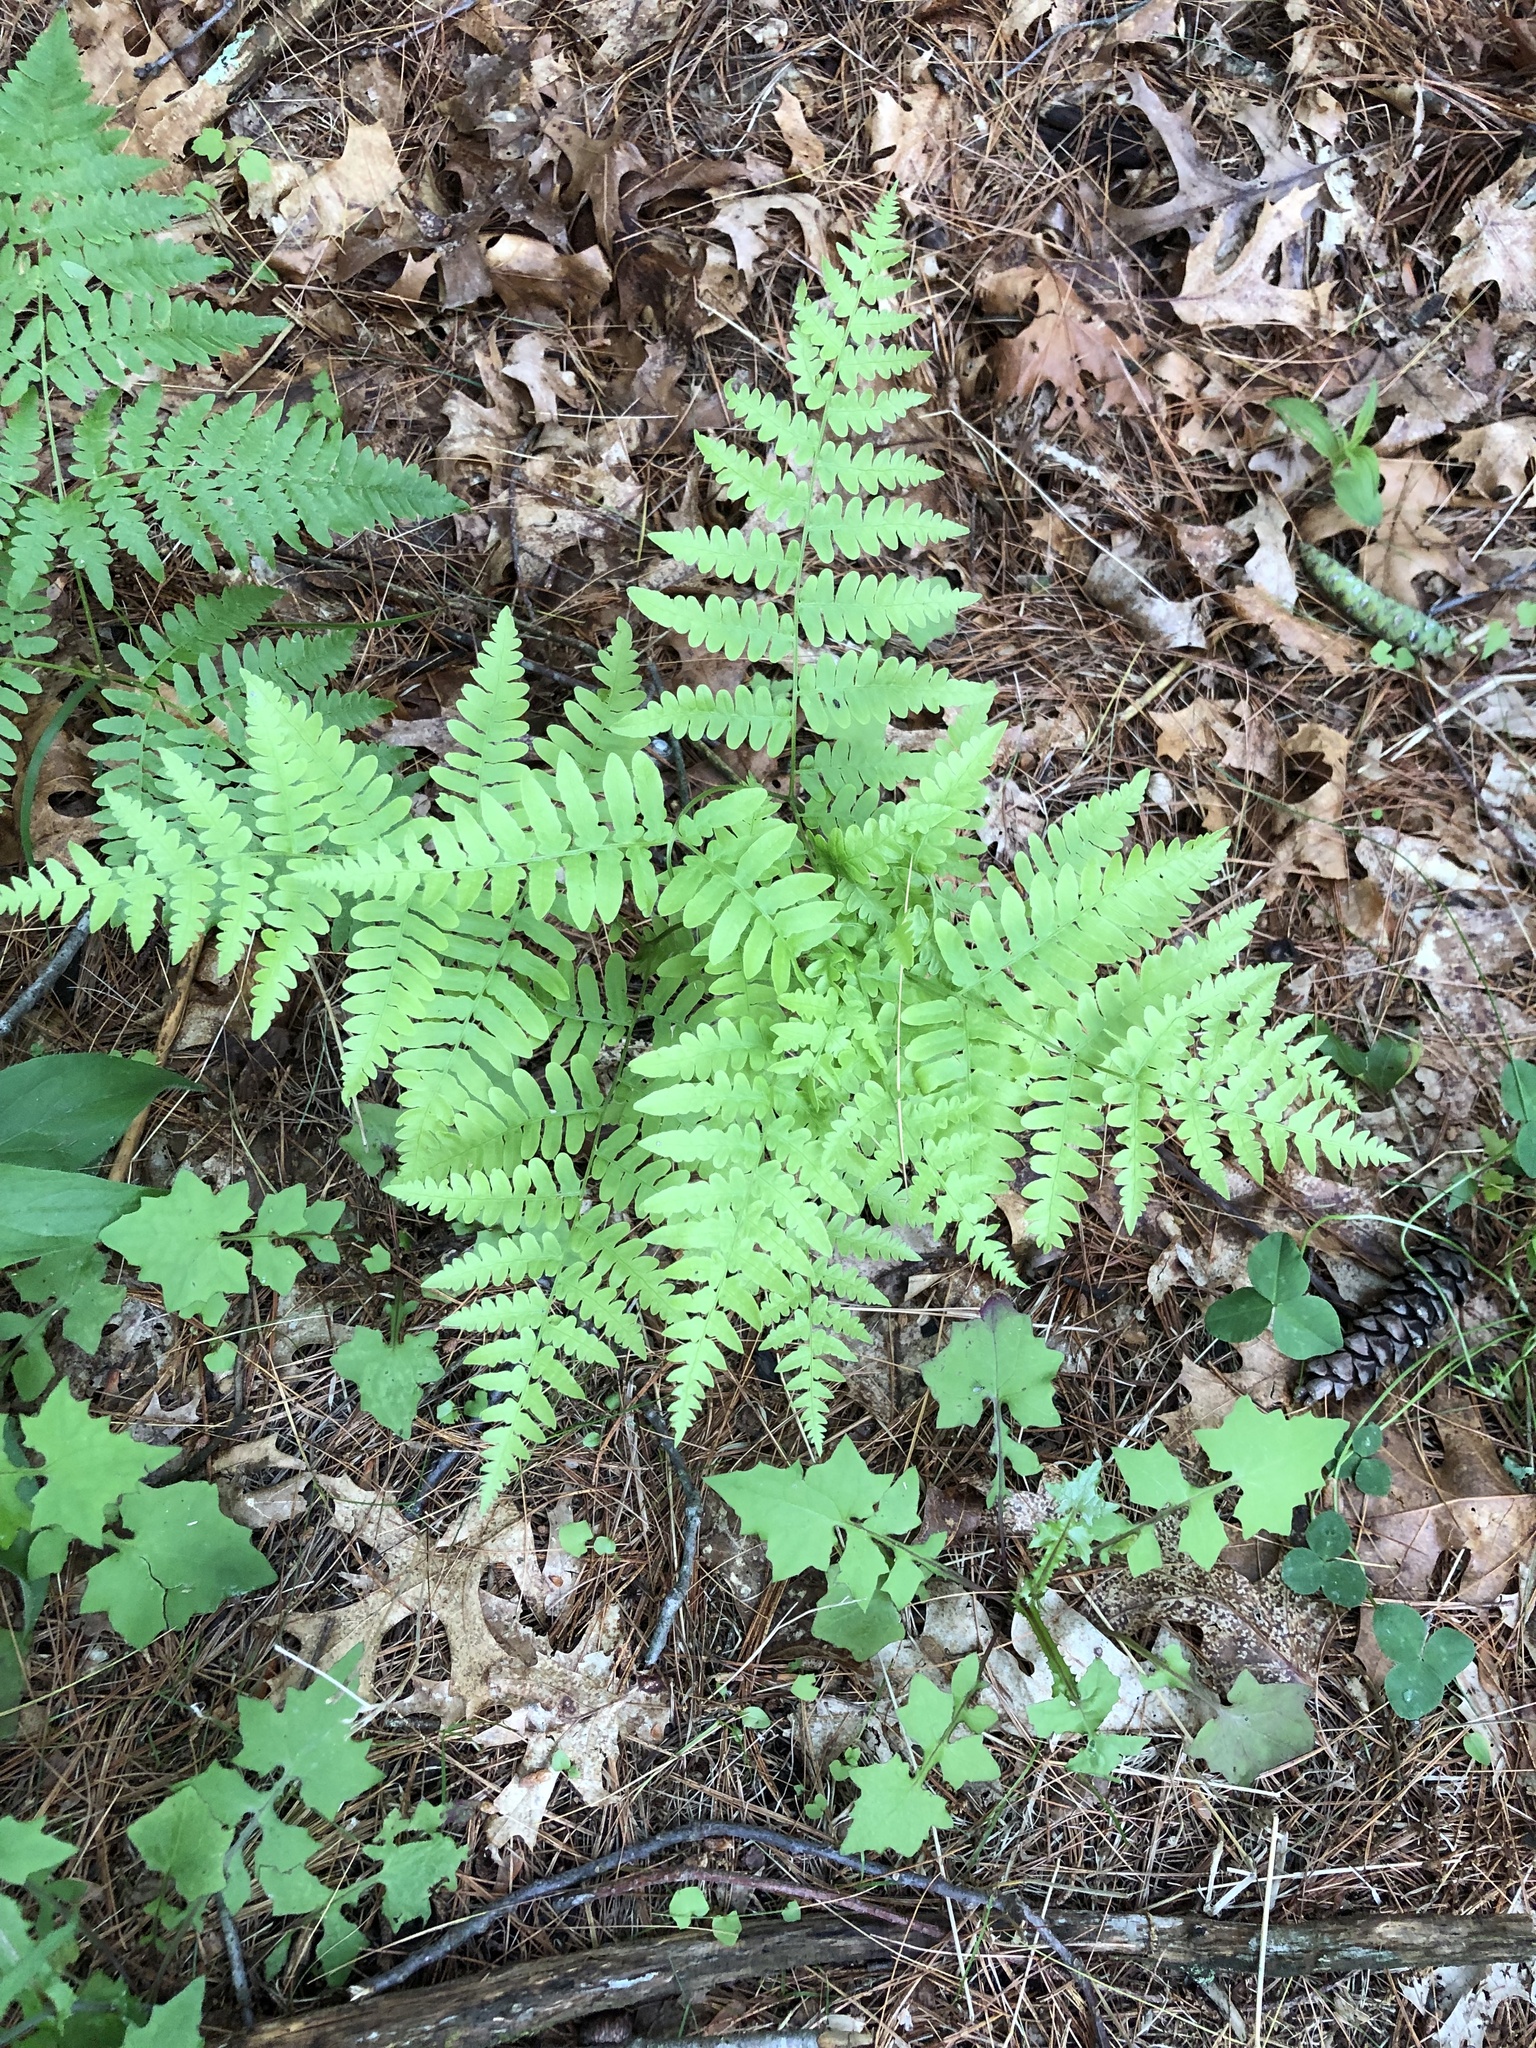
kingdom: Plantae
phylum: Tracheophyta
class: Polypodiopsida
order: Polypodiales
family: Dennstaedtiaceae
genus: Pteridium
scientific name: Pteridium aquilinum
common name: Bracken
